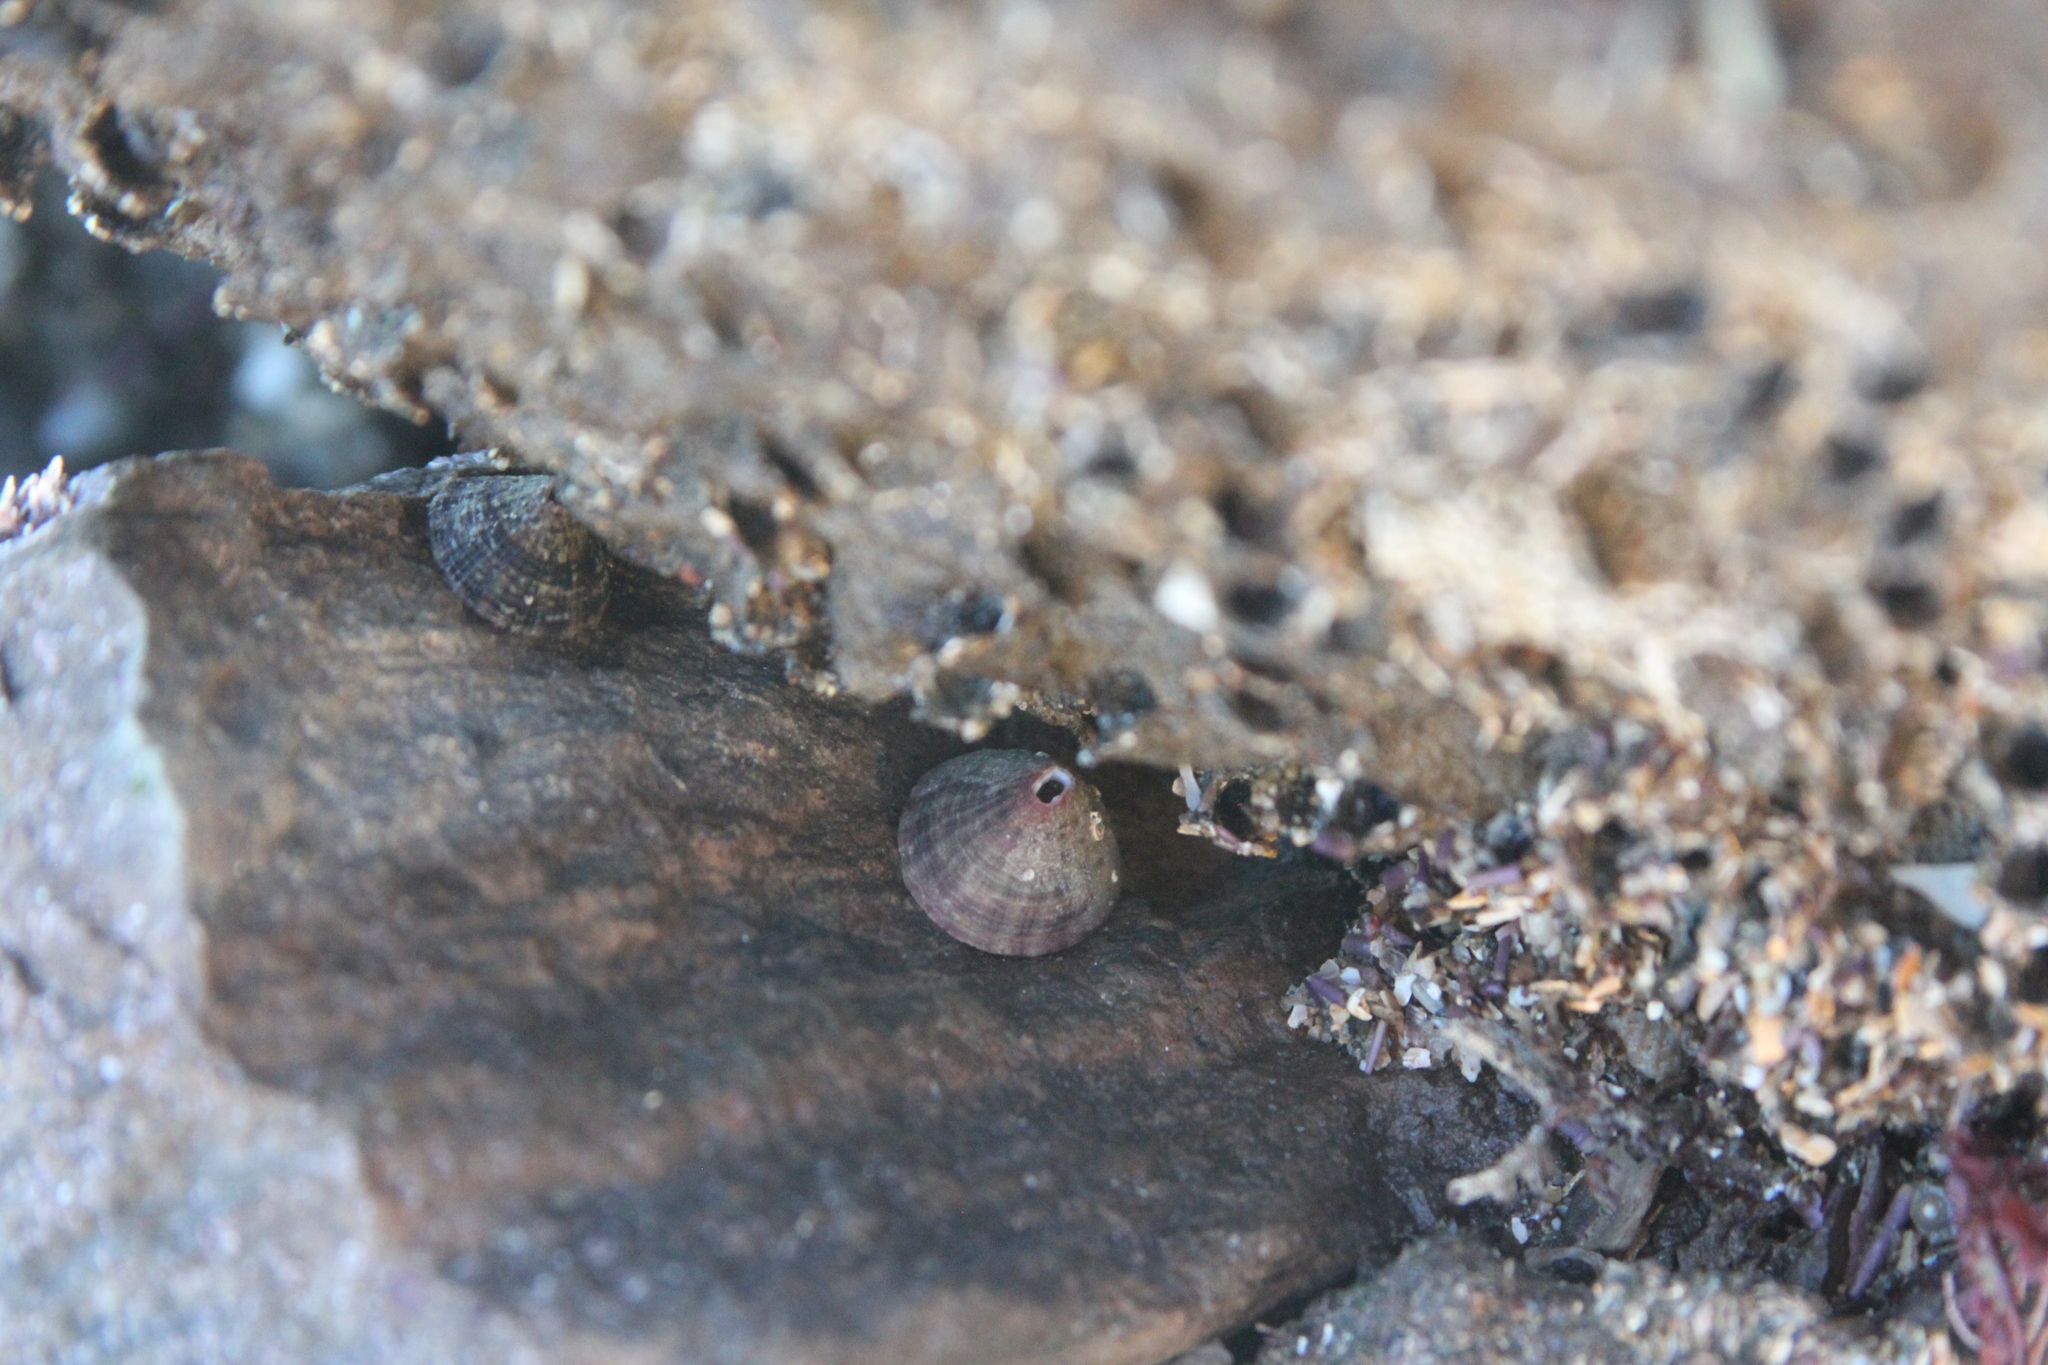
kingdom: Animalia
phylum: Mollusca
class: Gastropoda
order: Lepetellida
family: Fissurellidae
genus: Fissurella
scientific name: Fissurella volcano
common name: Volcano keyhole limpet
